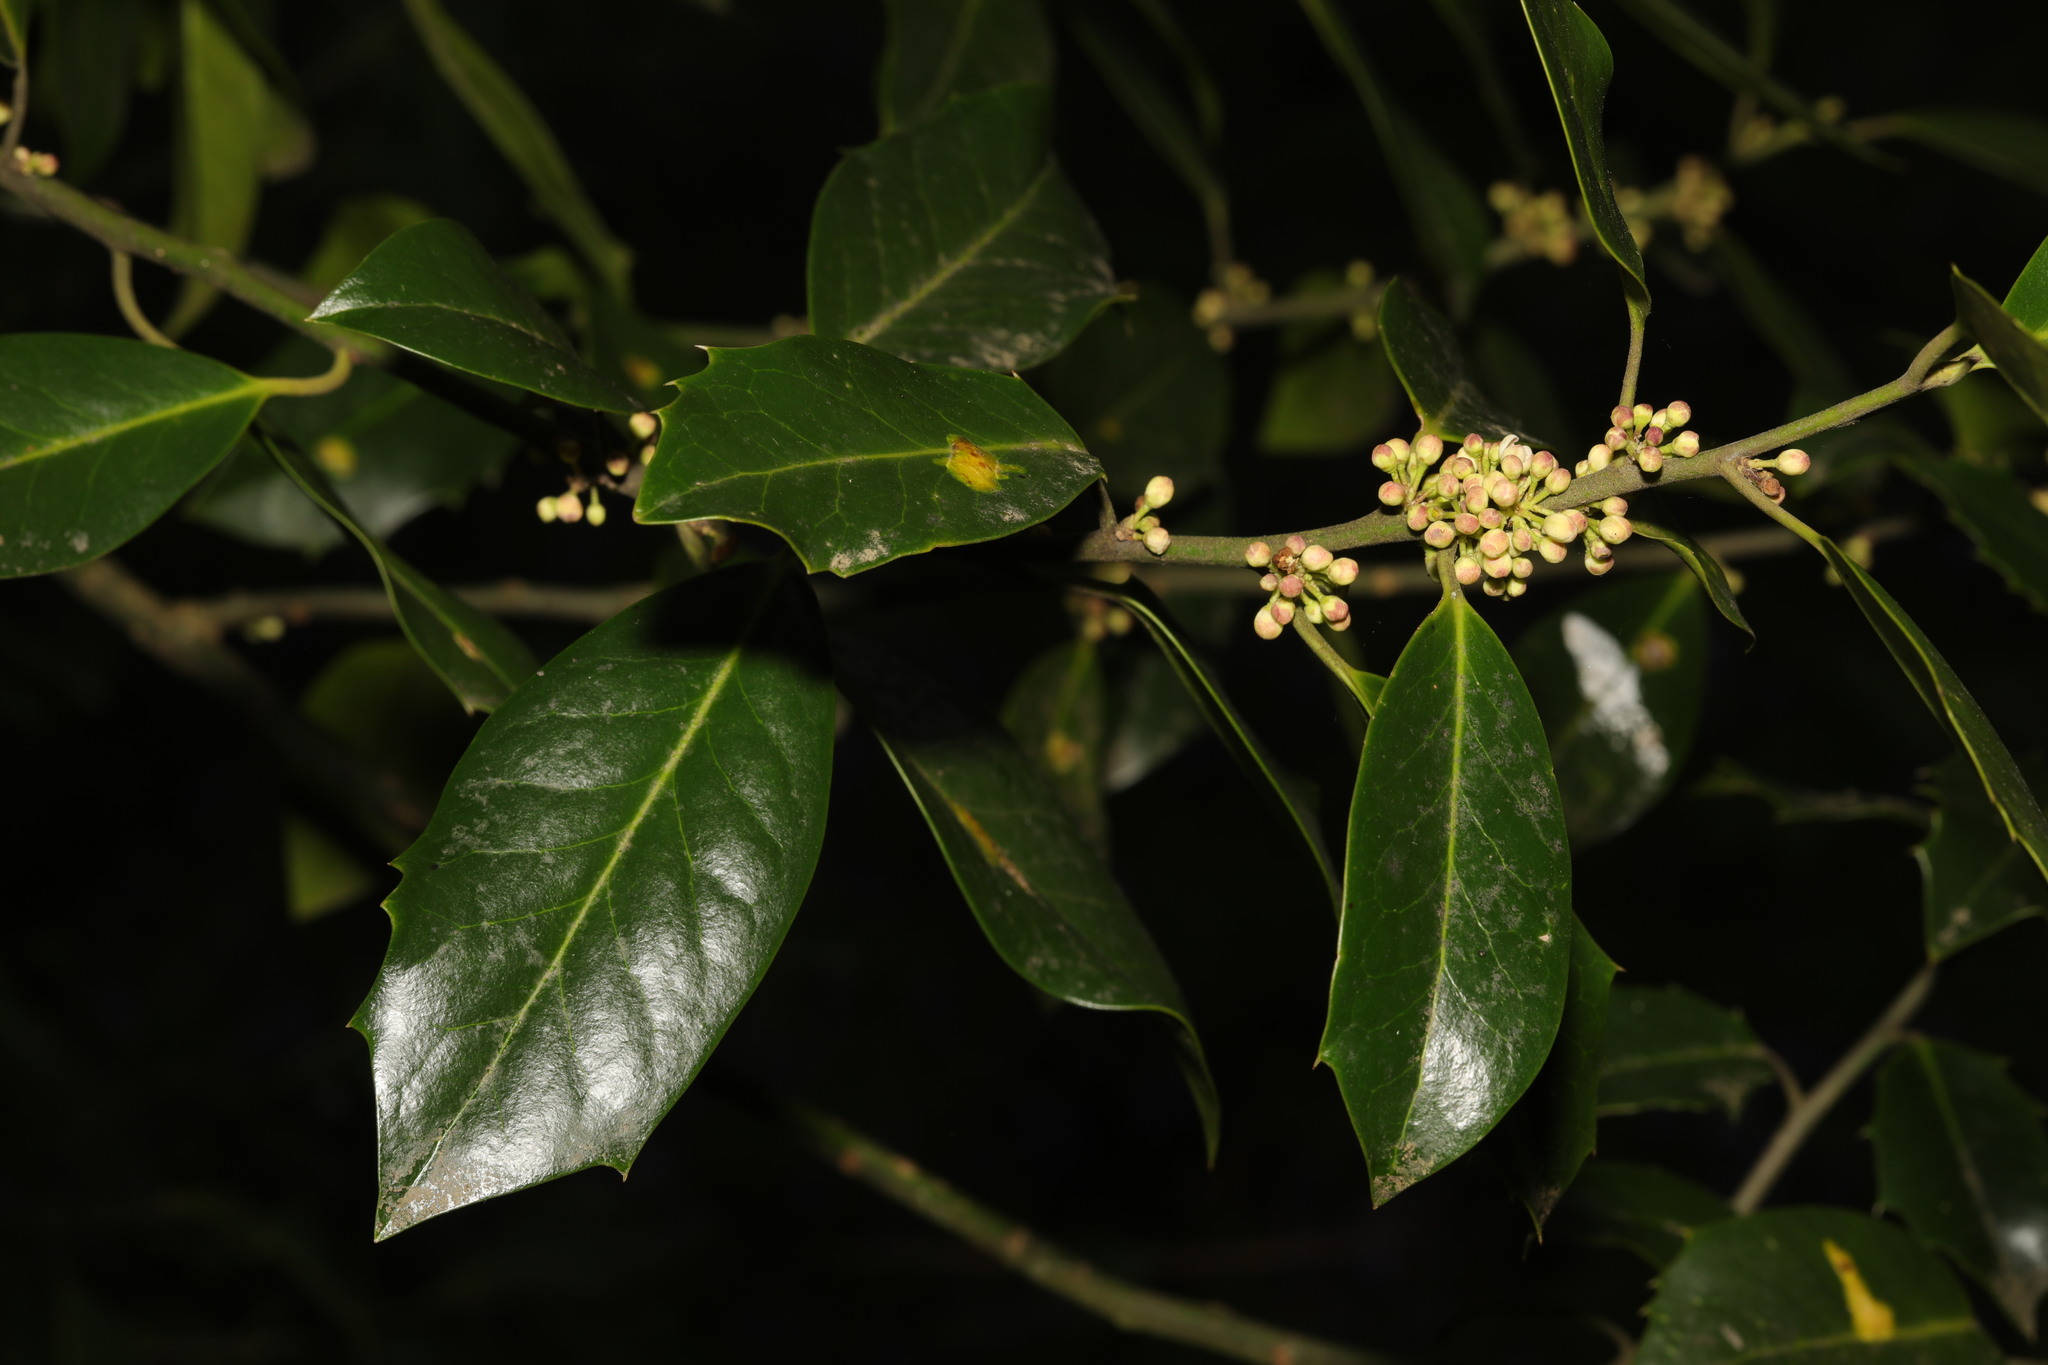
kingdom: Plantae
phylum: Tracheophyta
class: Magnoliopsida
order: Aquifoliales
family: Aquifoliaceae
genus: Ilex
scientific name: Ilex aquifolium
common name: English holly
